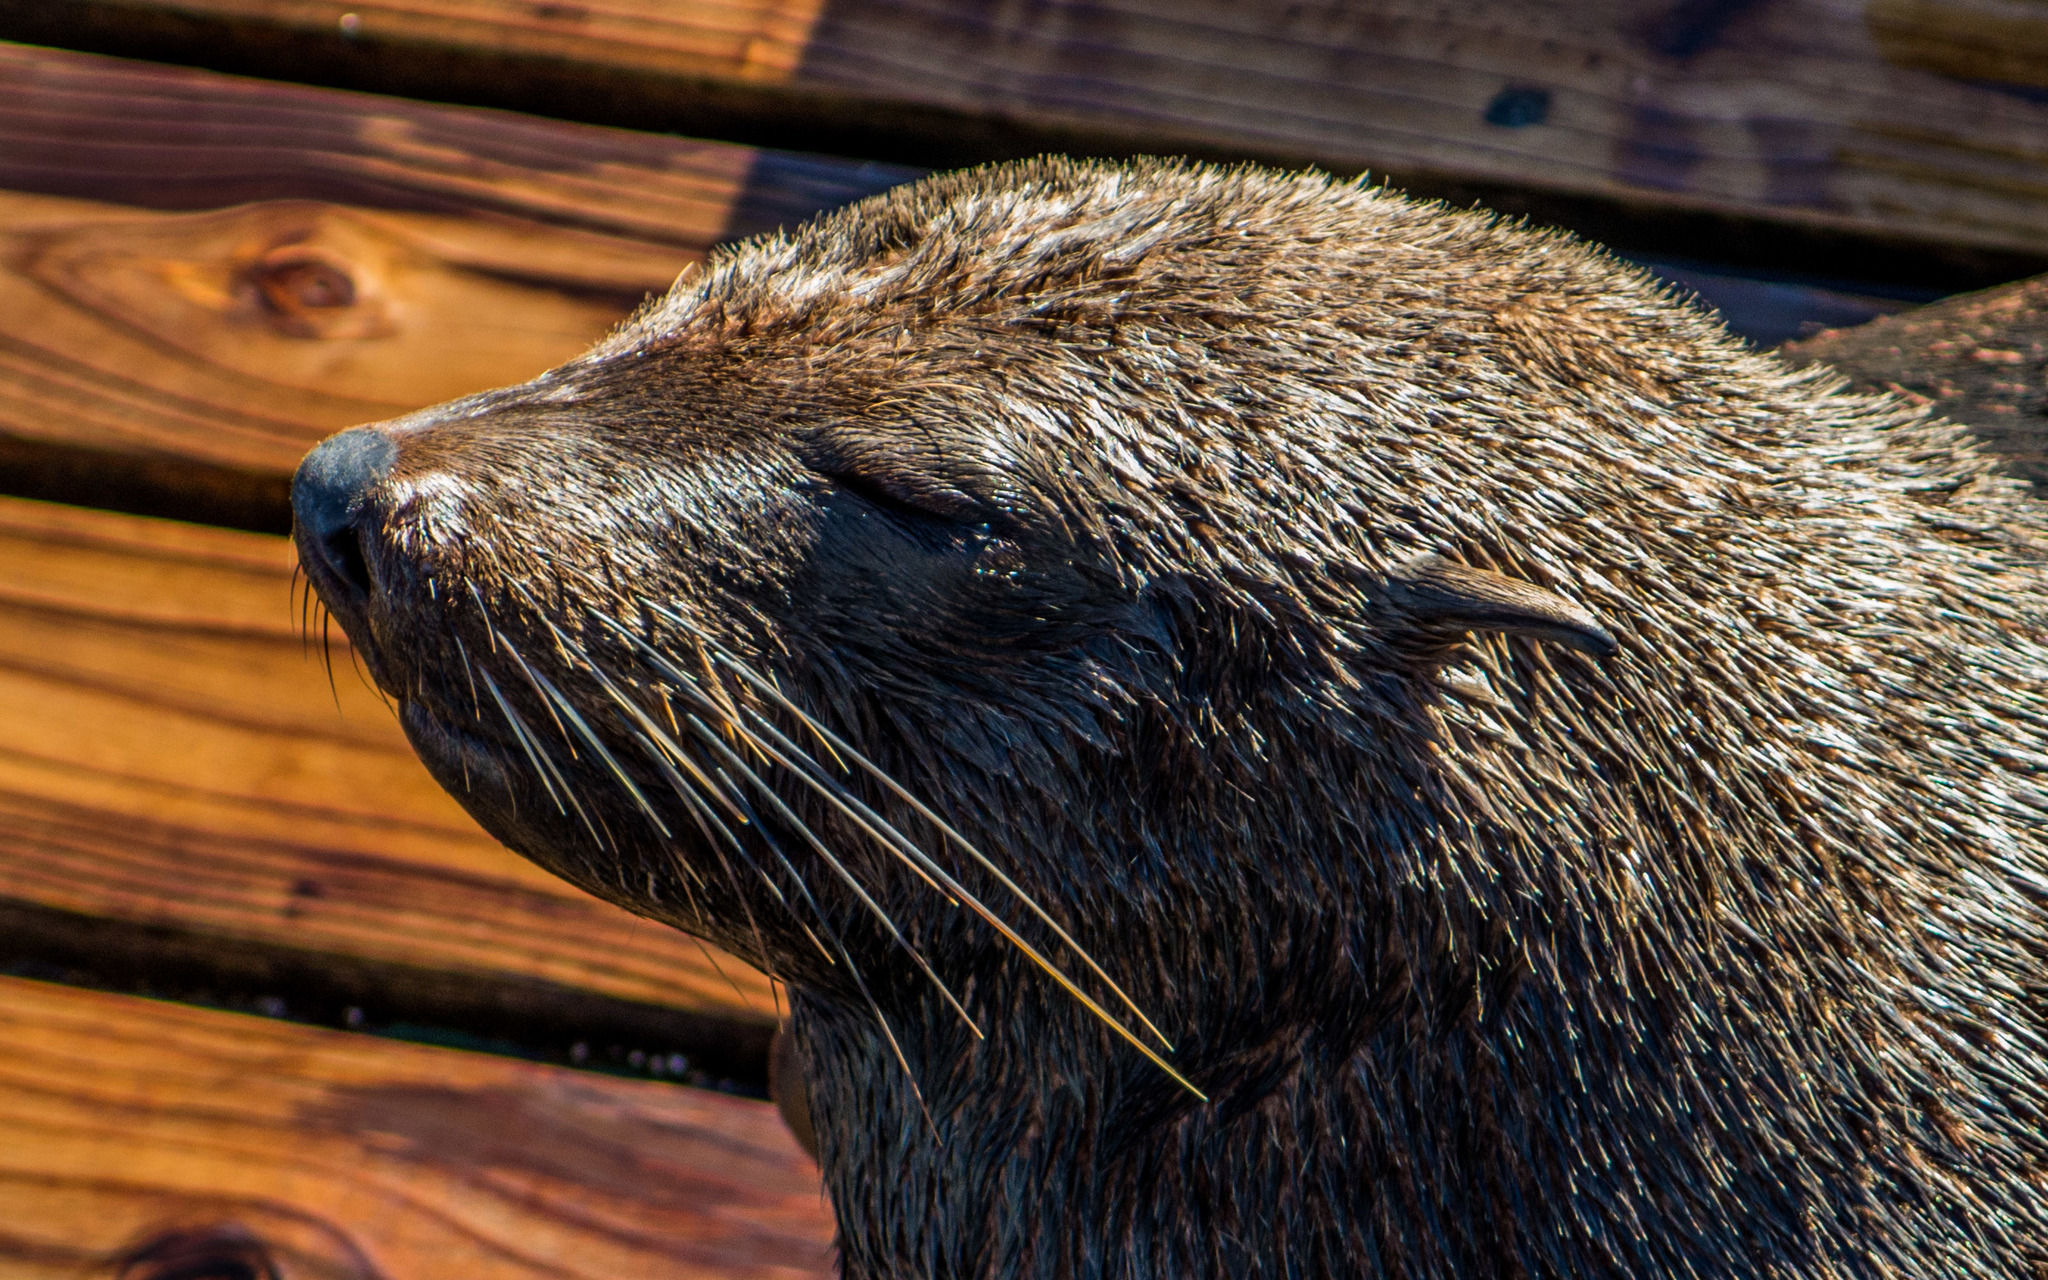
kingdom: Animalia
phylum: Chordata
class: Mammalia
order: Carnivora
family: Otariidae
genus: Arctocephalus
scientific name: Arctocephalus pusillus
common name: Brown fur seal
